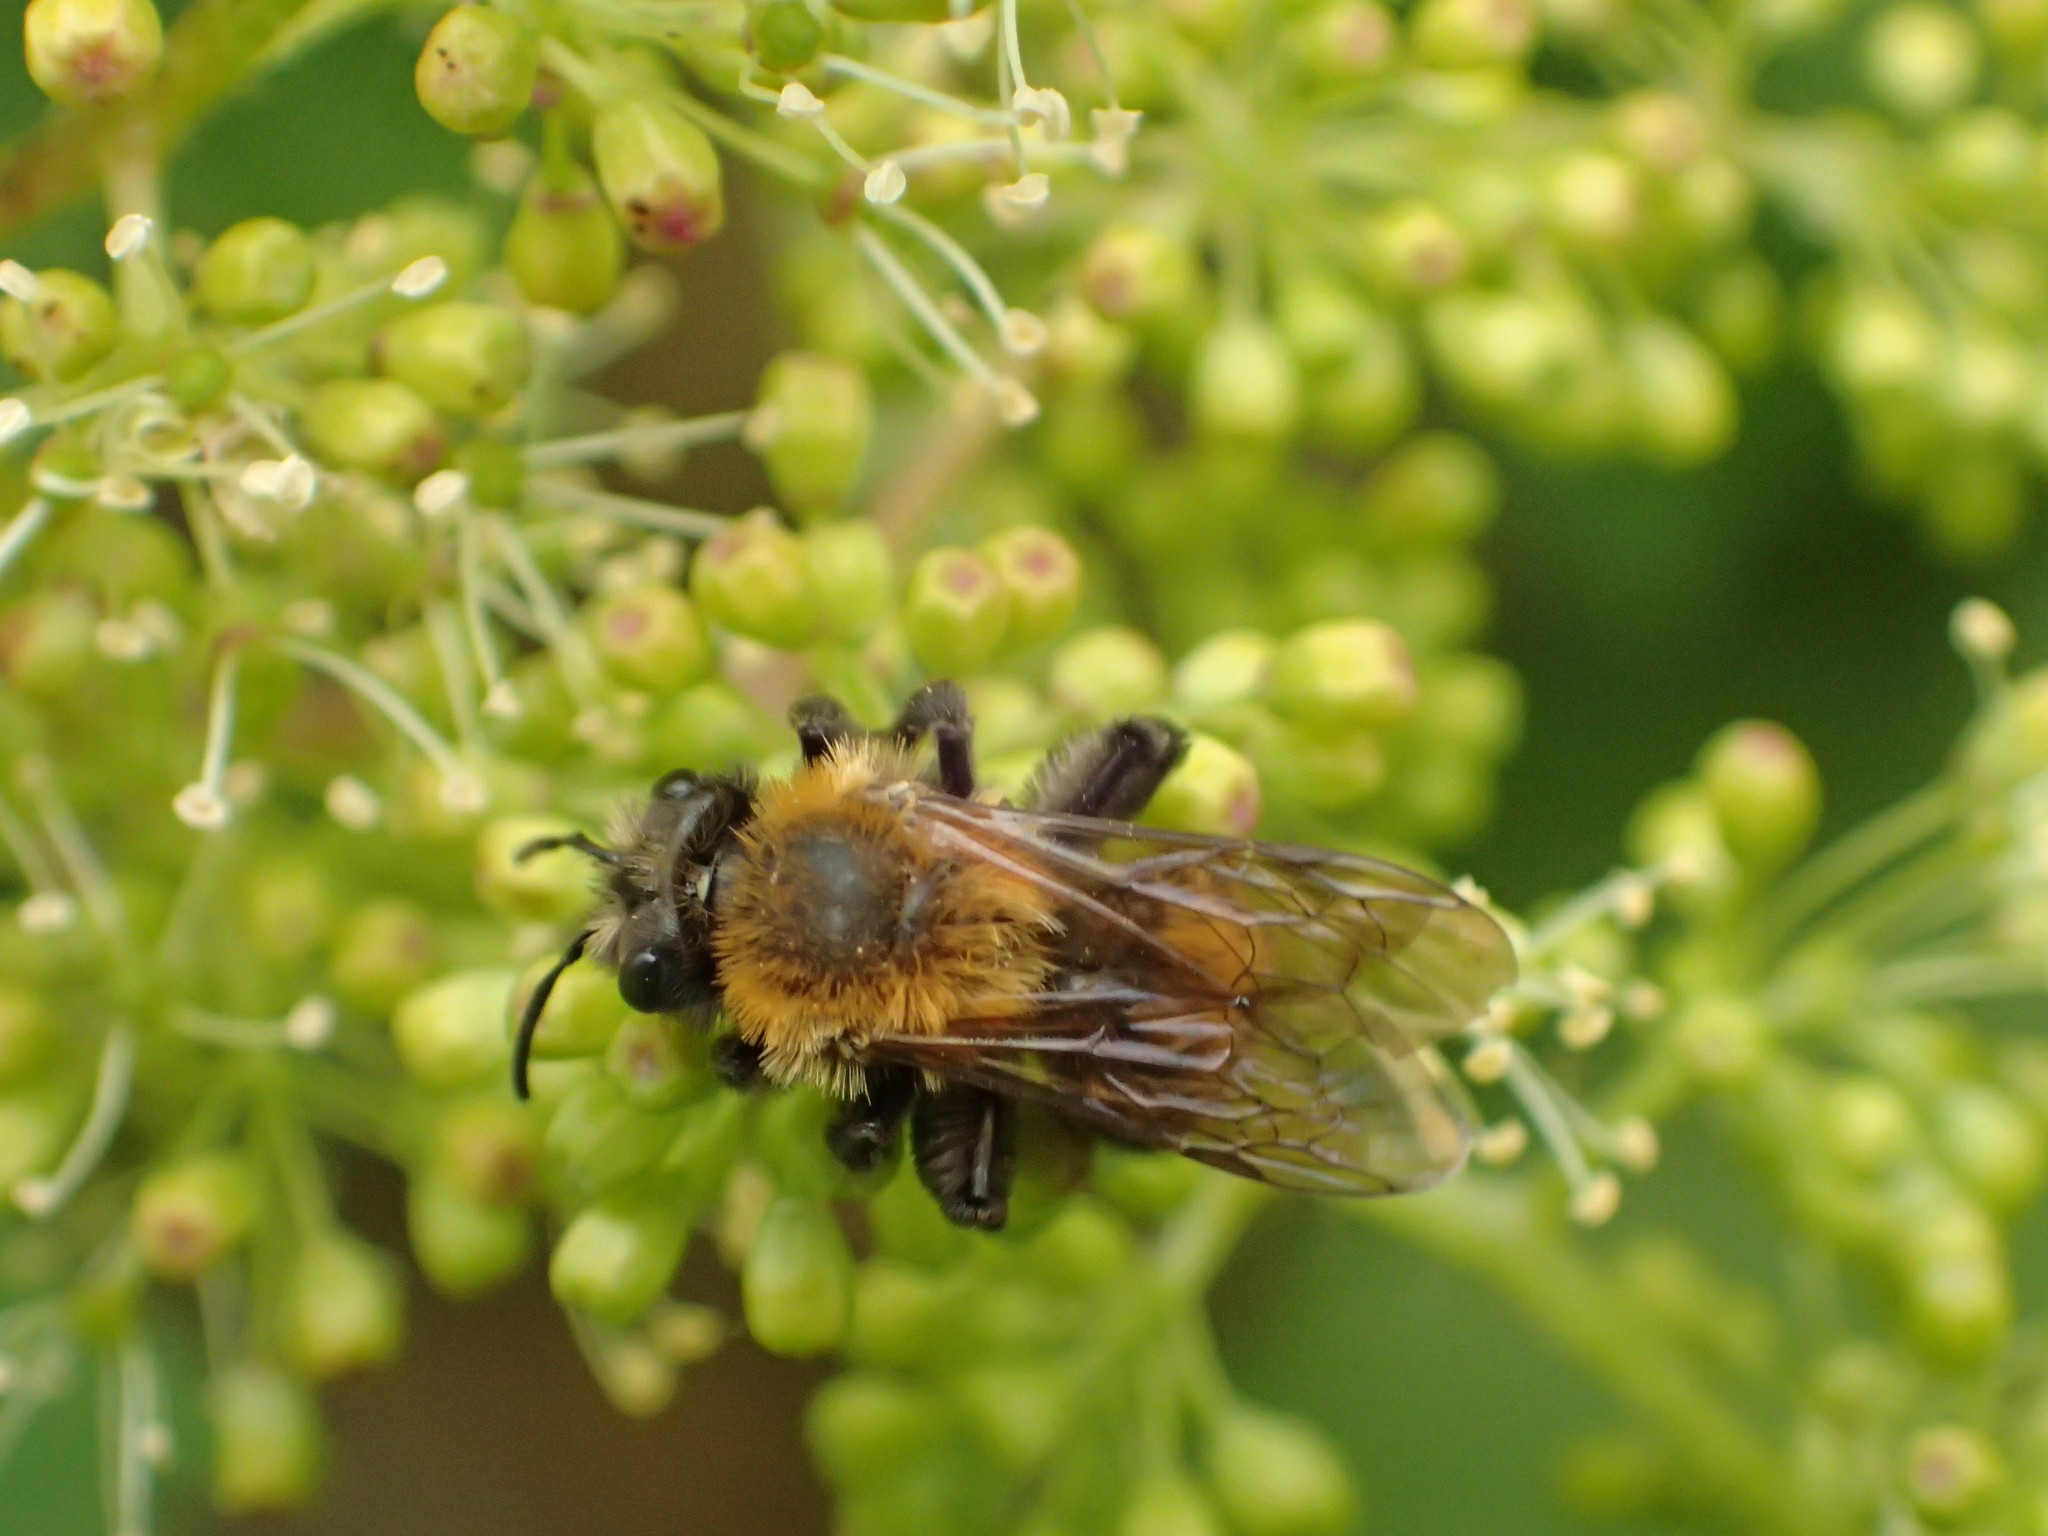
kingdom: Animalia
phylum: Arthropoda
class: Insecta
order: Hymenoptera
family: Andrenidae
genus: Andrena
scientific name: Andrena milwaukeensis
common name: Milwaukee mining bee
